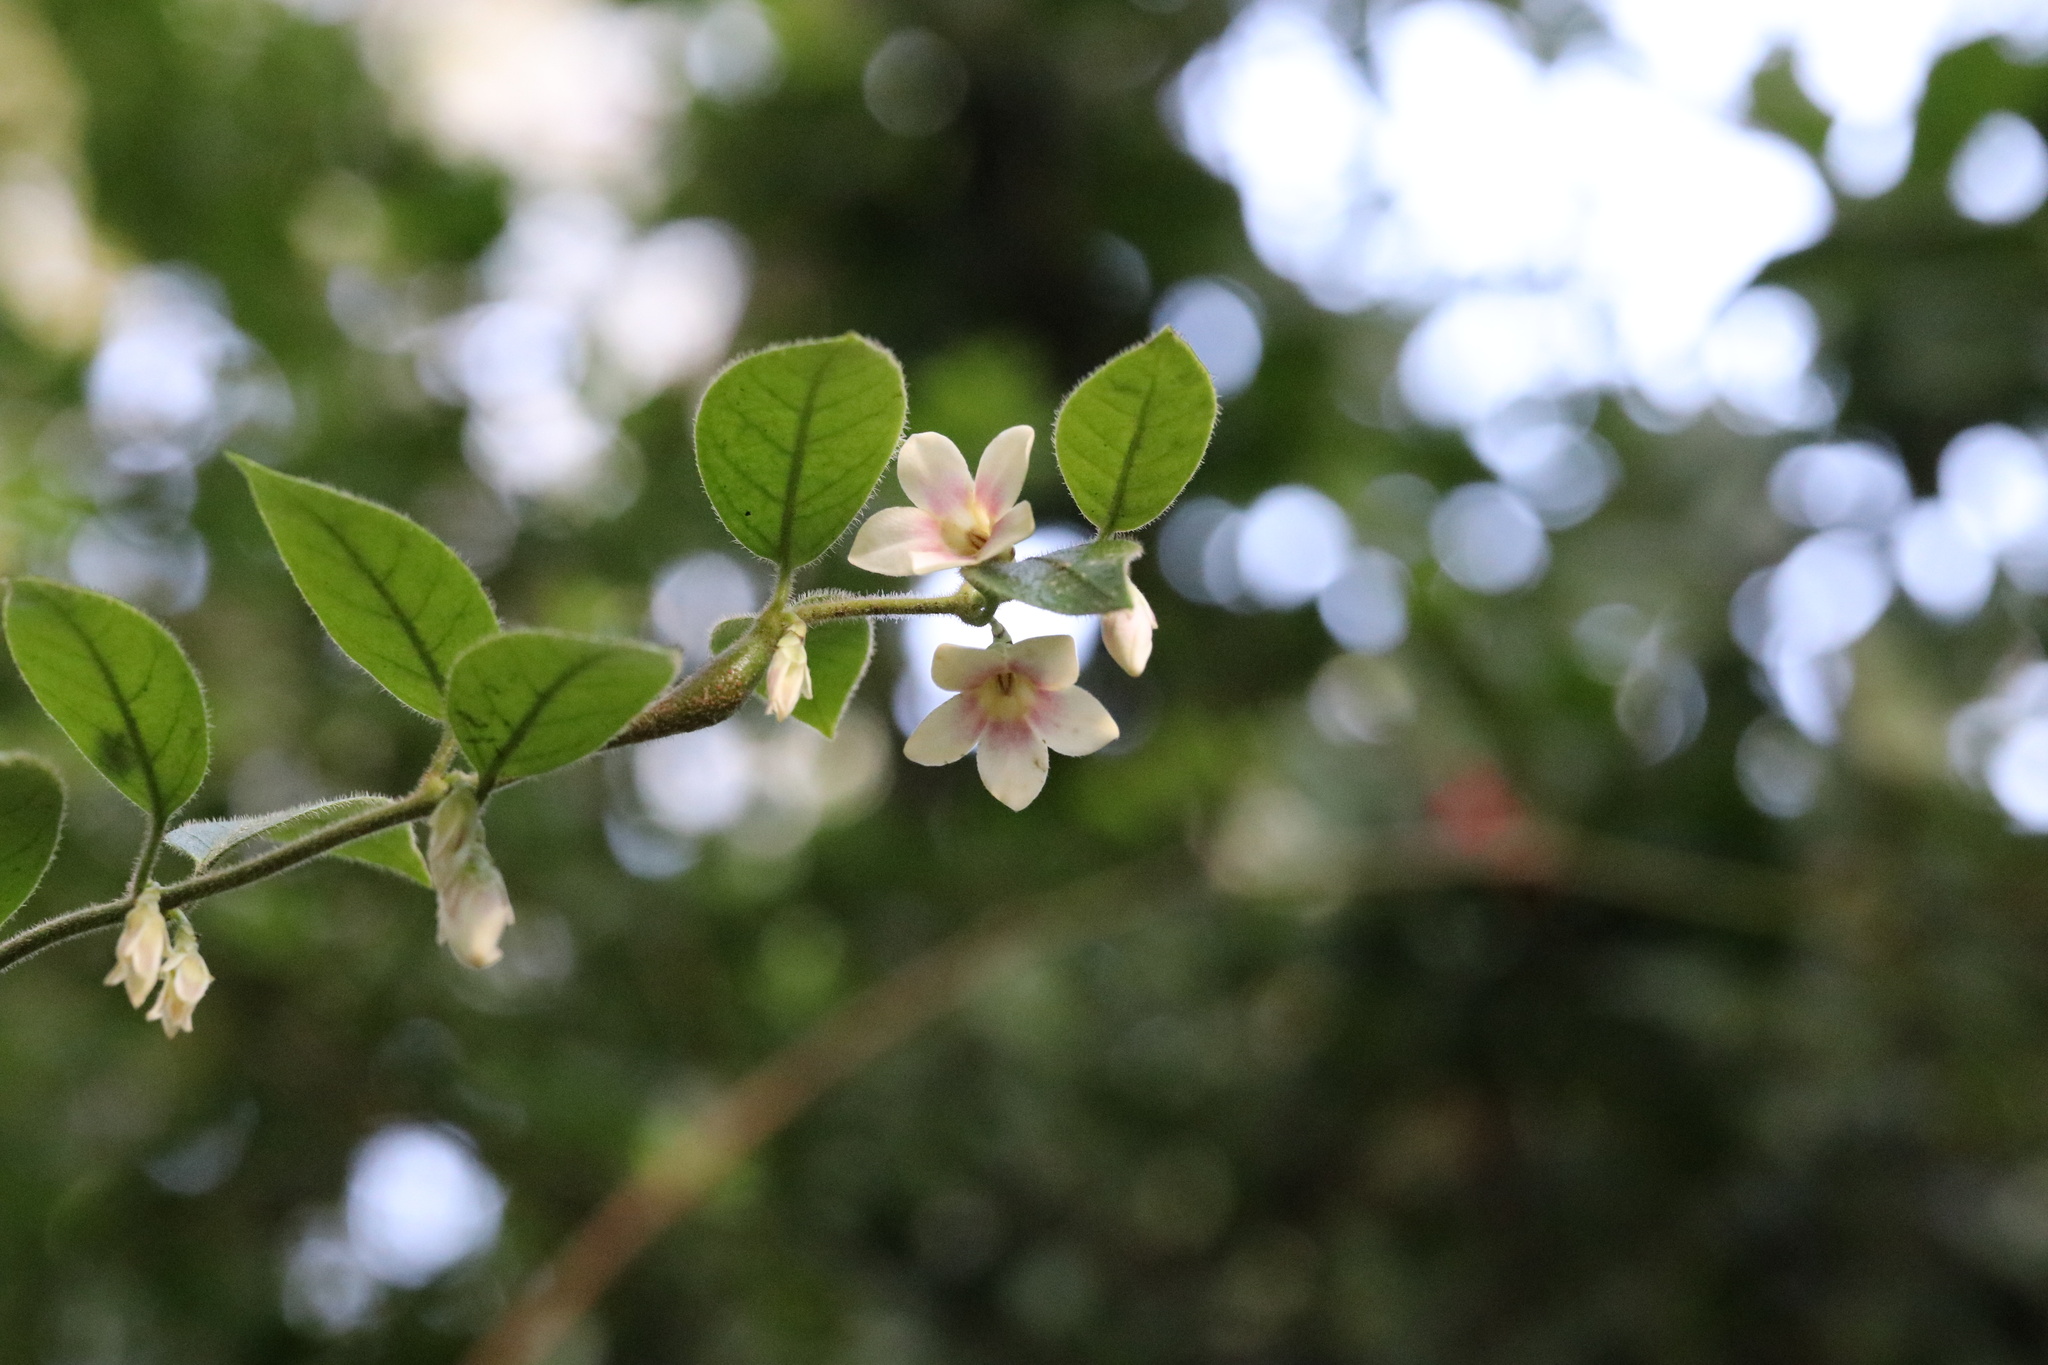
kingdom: Plantae
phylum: Tracheophyta
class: Magnoliopsida
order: Gentianales
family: Apocynaceae
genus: Mandevilla
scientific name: Mandevilla pubescens
